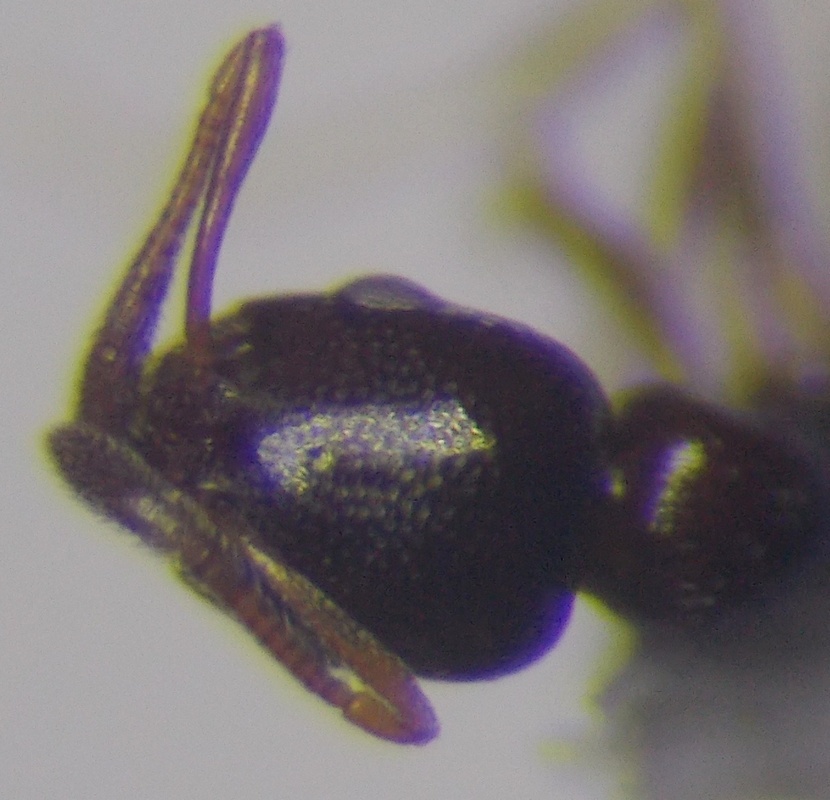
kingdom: Animalia
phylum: Arthropoda
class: Insecta
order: Hymenoptera
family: Formicidae
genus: Cardiocondyla
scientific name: Cardiocondyla ulianini
